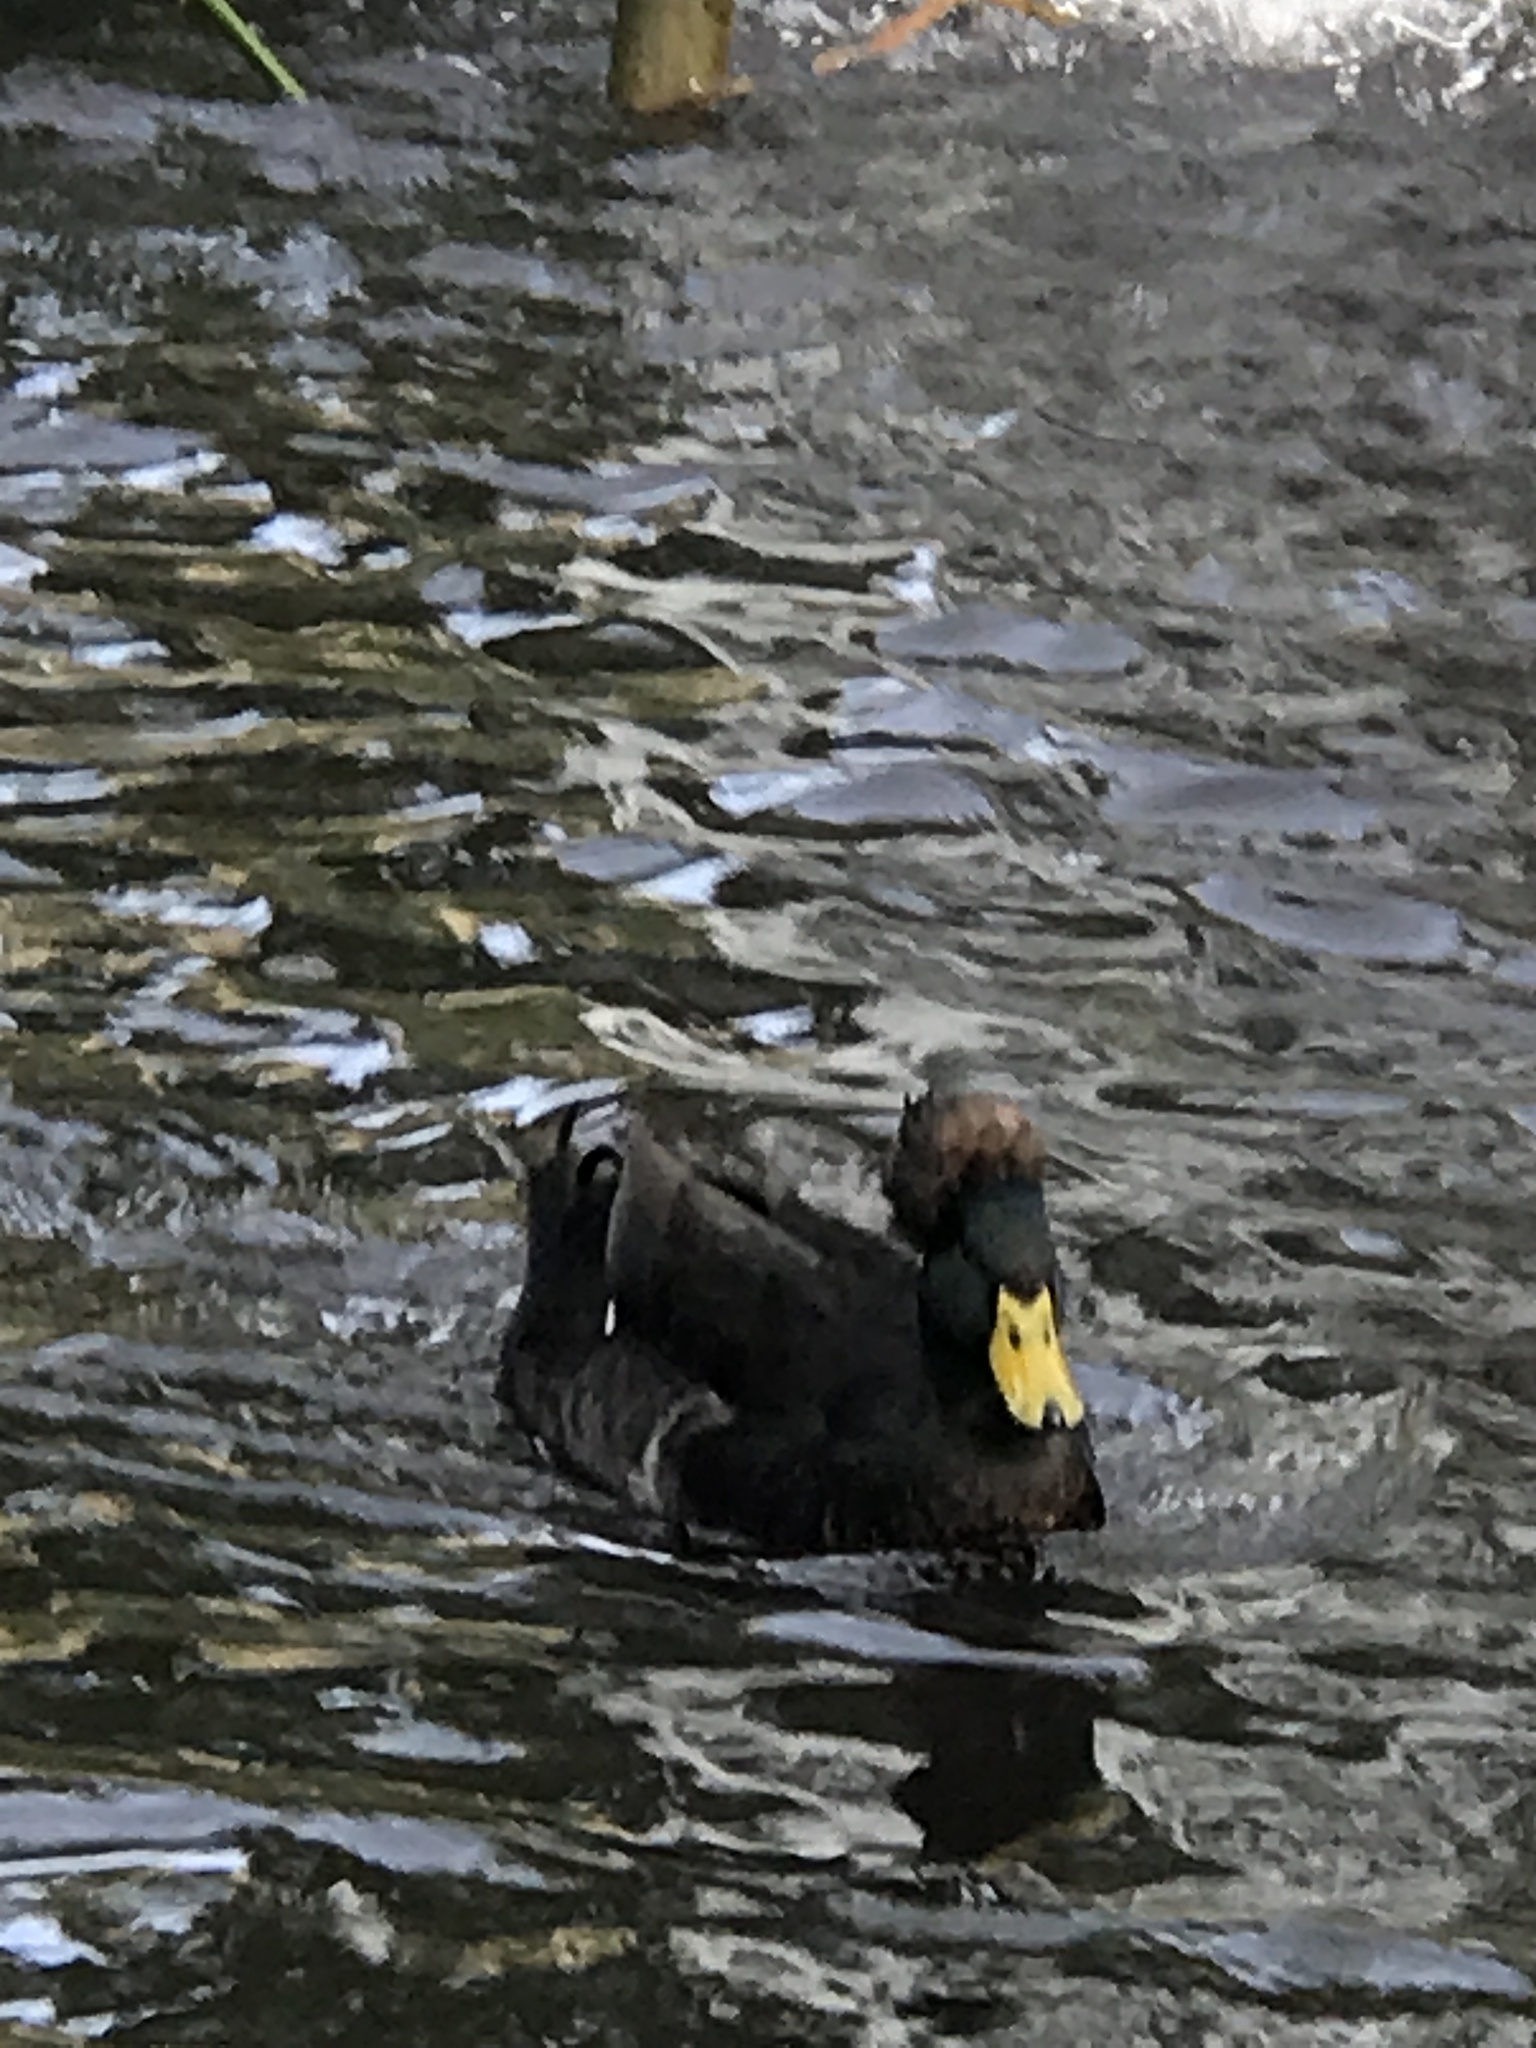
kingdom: Animalia
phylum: Chordata
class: Aves
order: Anseriformes
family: Anatidae
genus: Anas
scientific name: Anas platyrhynchos
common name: Mallard
